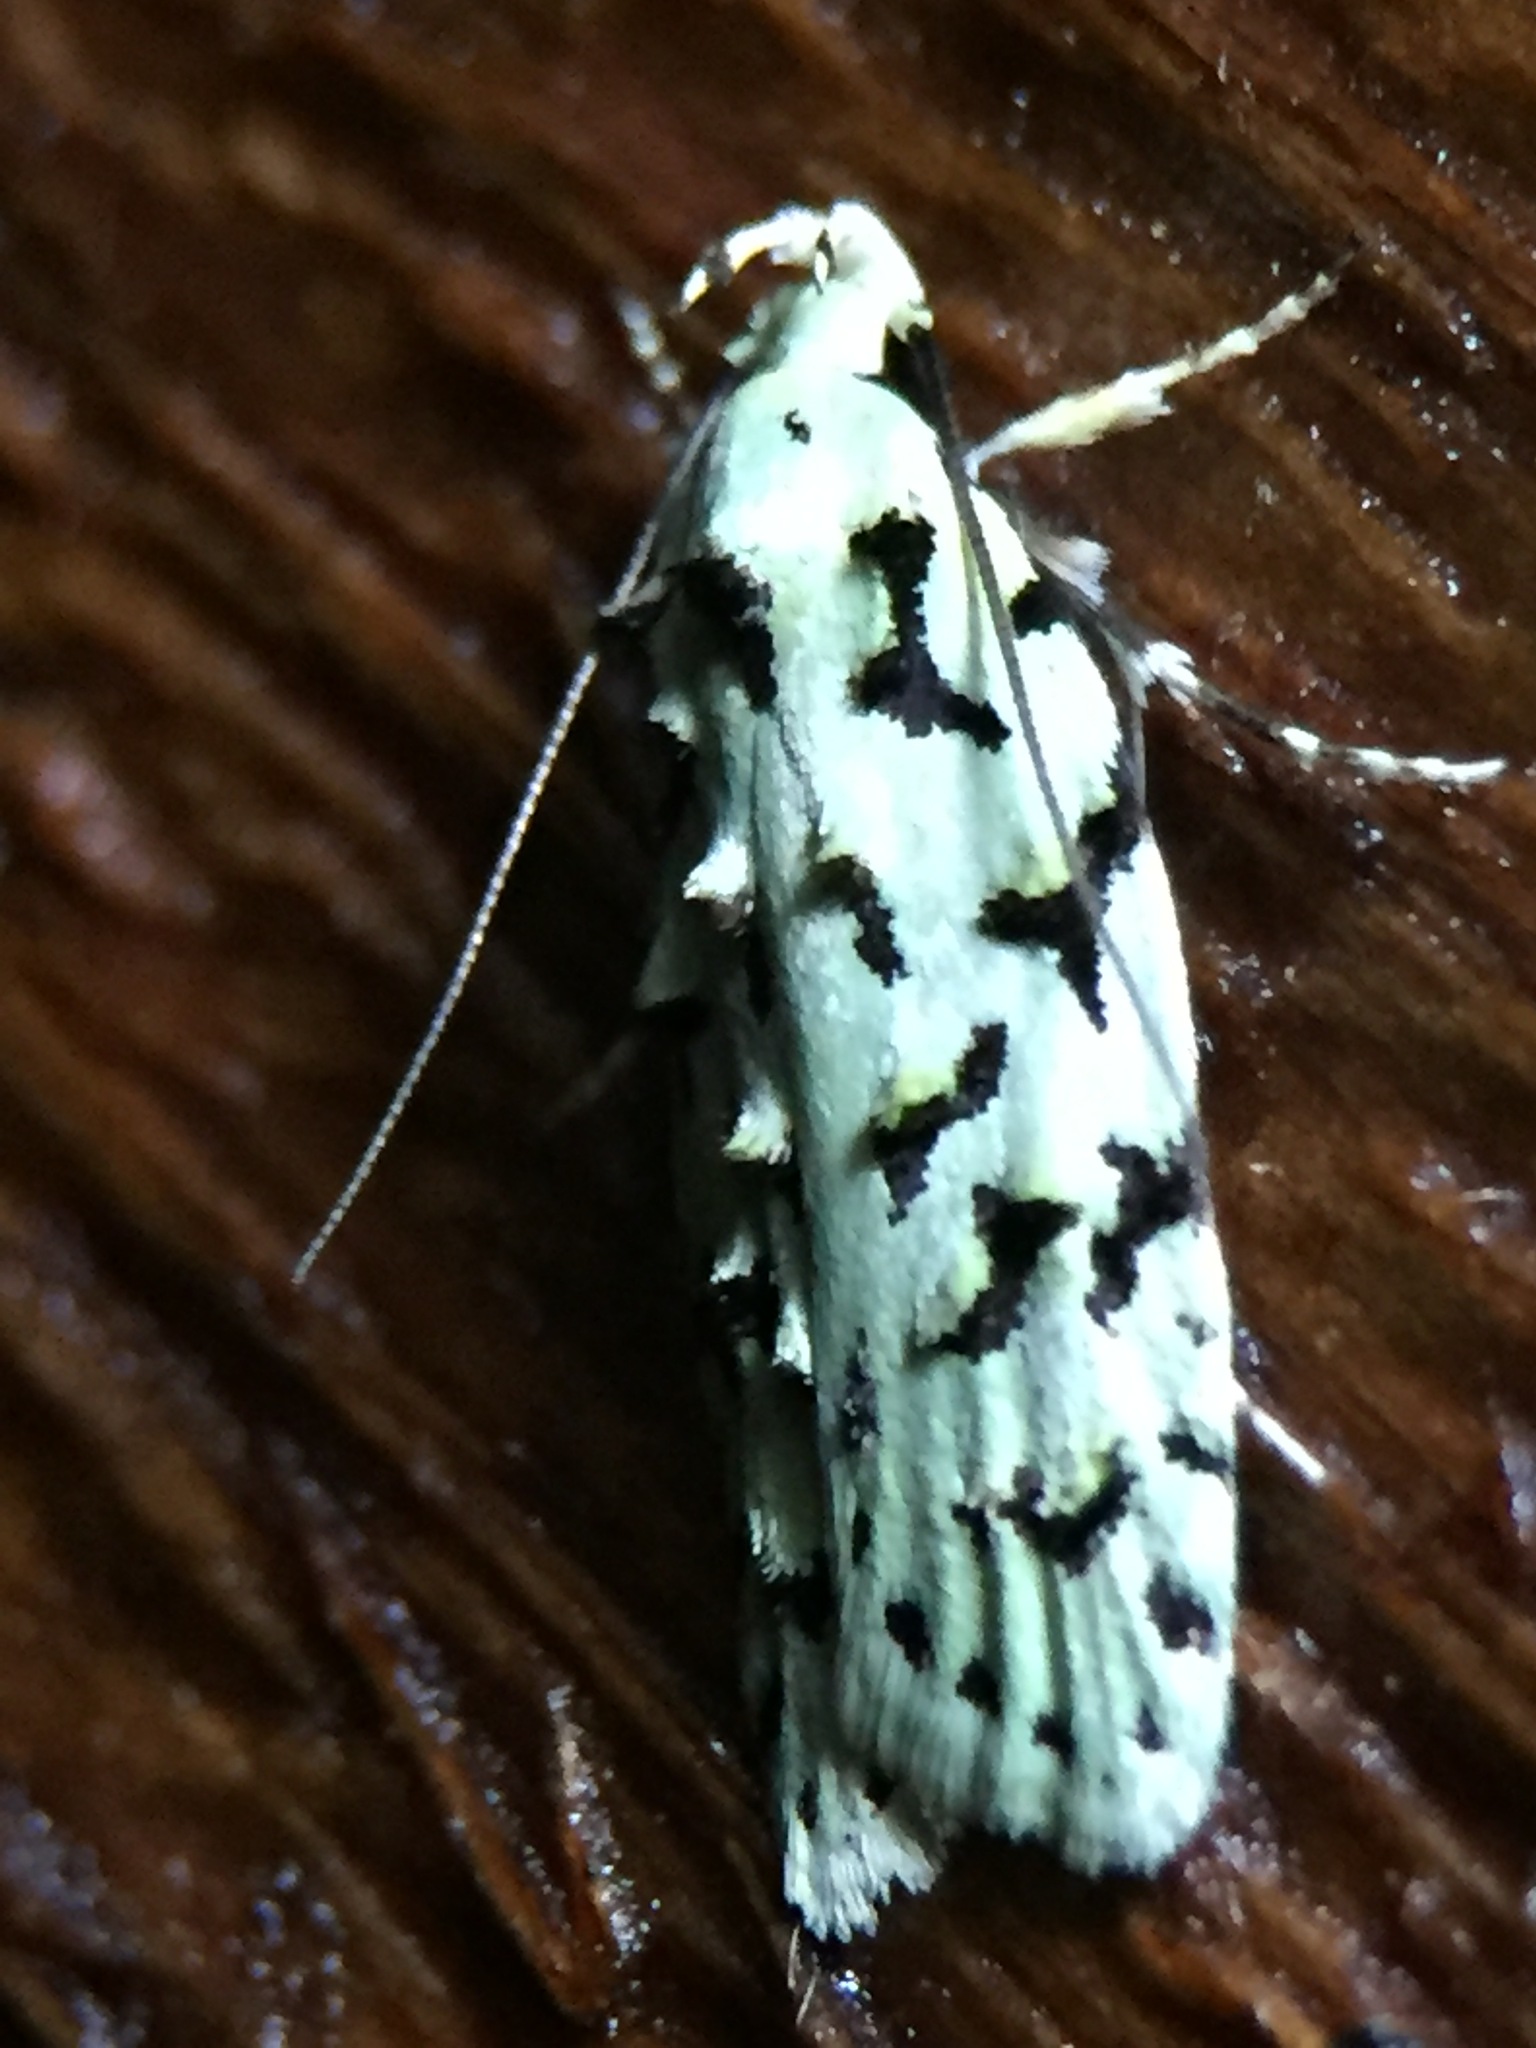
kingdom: Animalia
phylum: Arthropoda
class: Insecta
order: Lepidoptera
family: Oecophoridae
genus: Izatha
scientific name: Izatha peroneanella
